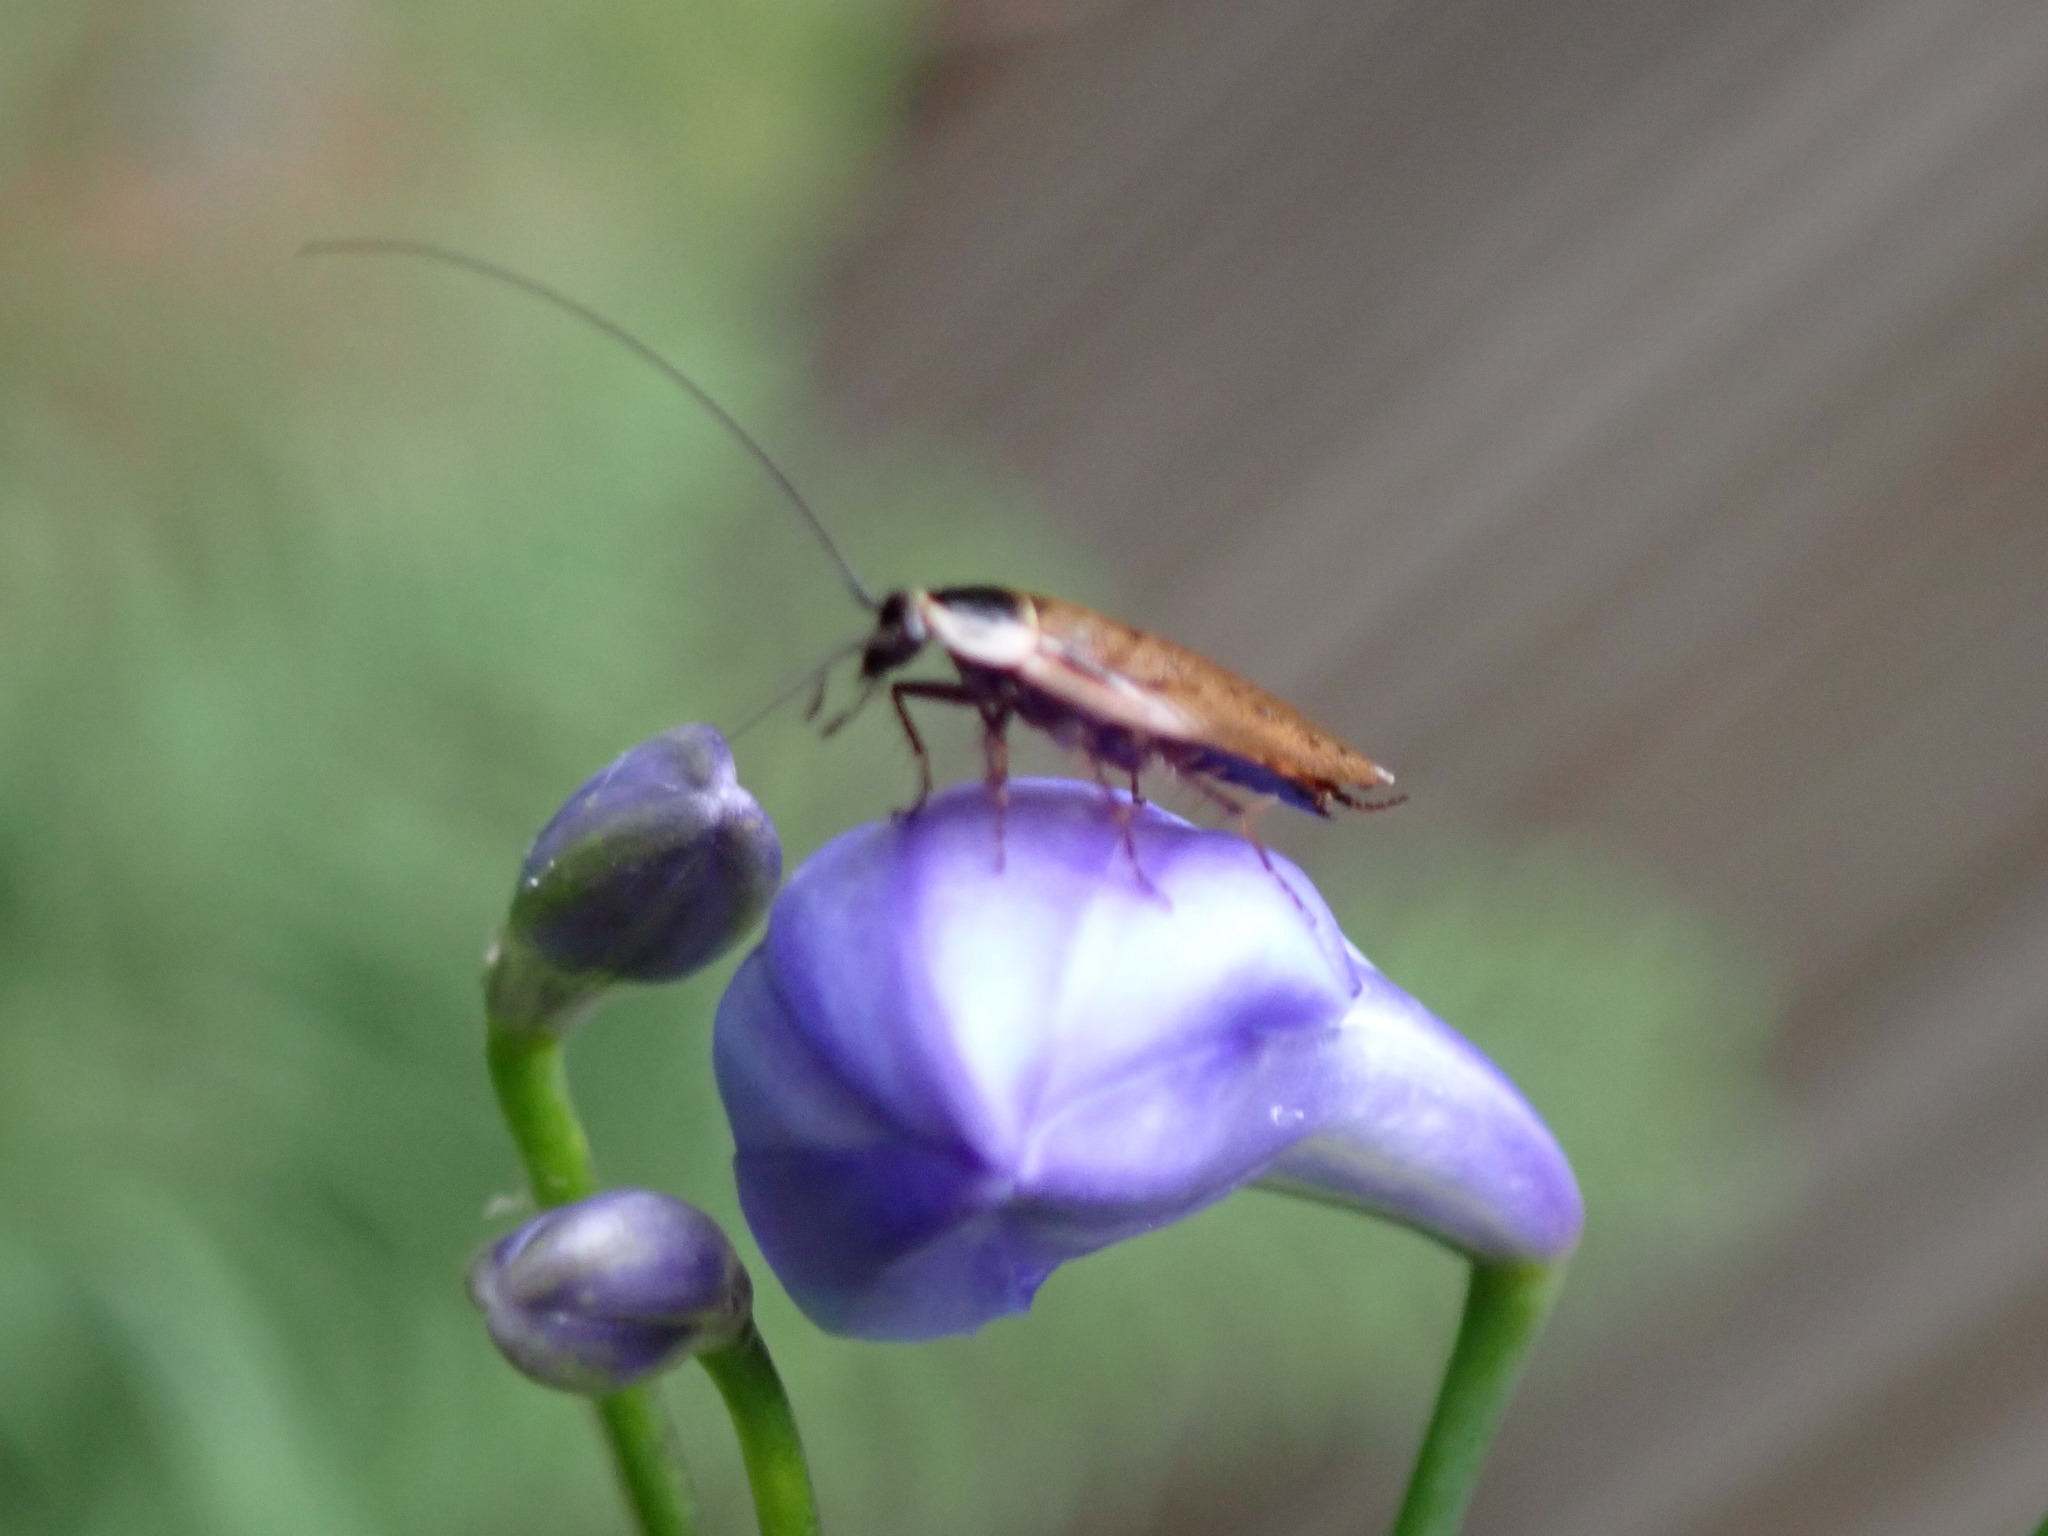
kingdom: Animalia
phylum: Arthropoda
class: Insecta
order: Blattodea
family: Ectobiidae
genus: Ectobius
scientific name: Ectobius sylvestris
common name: Forest cockroach
